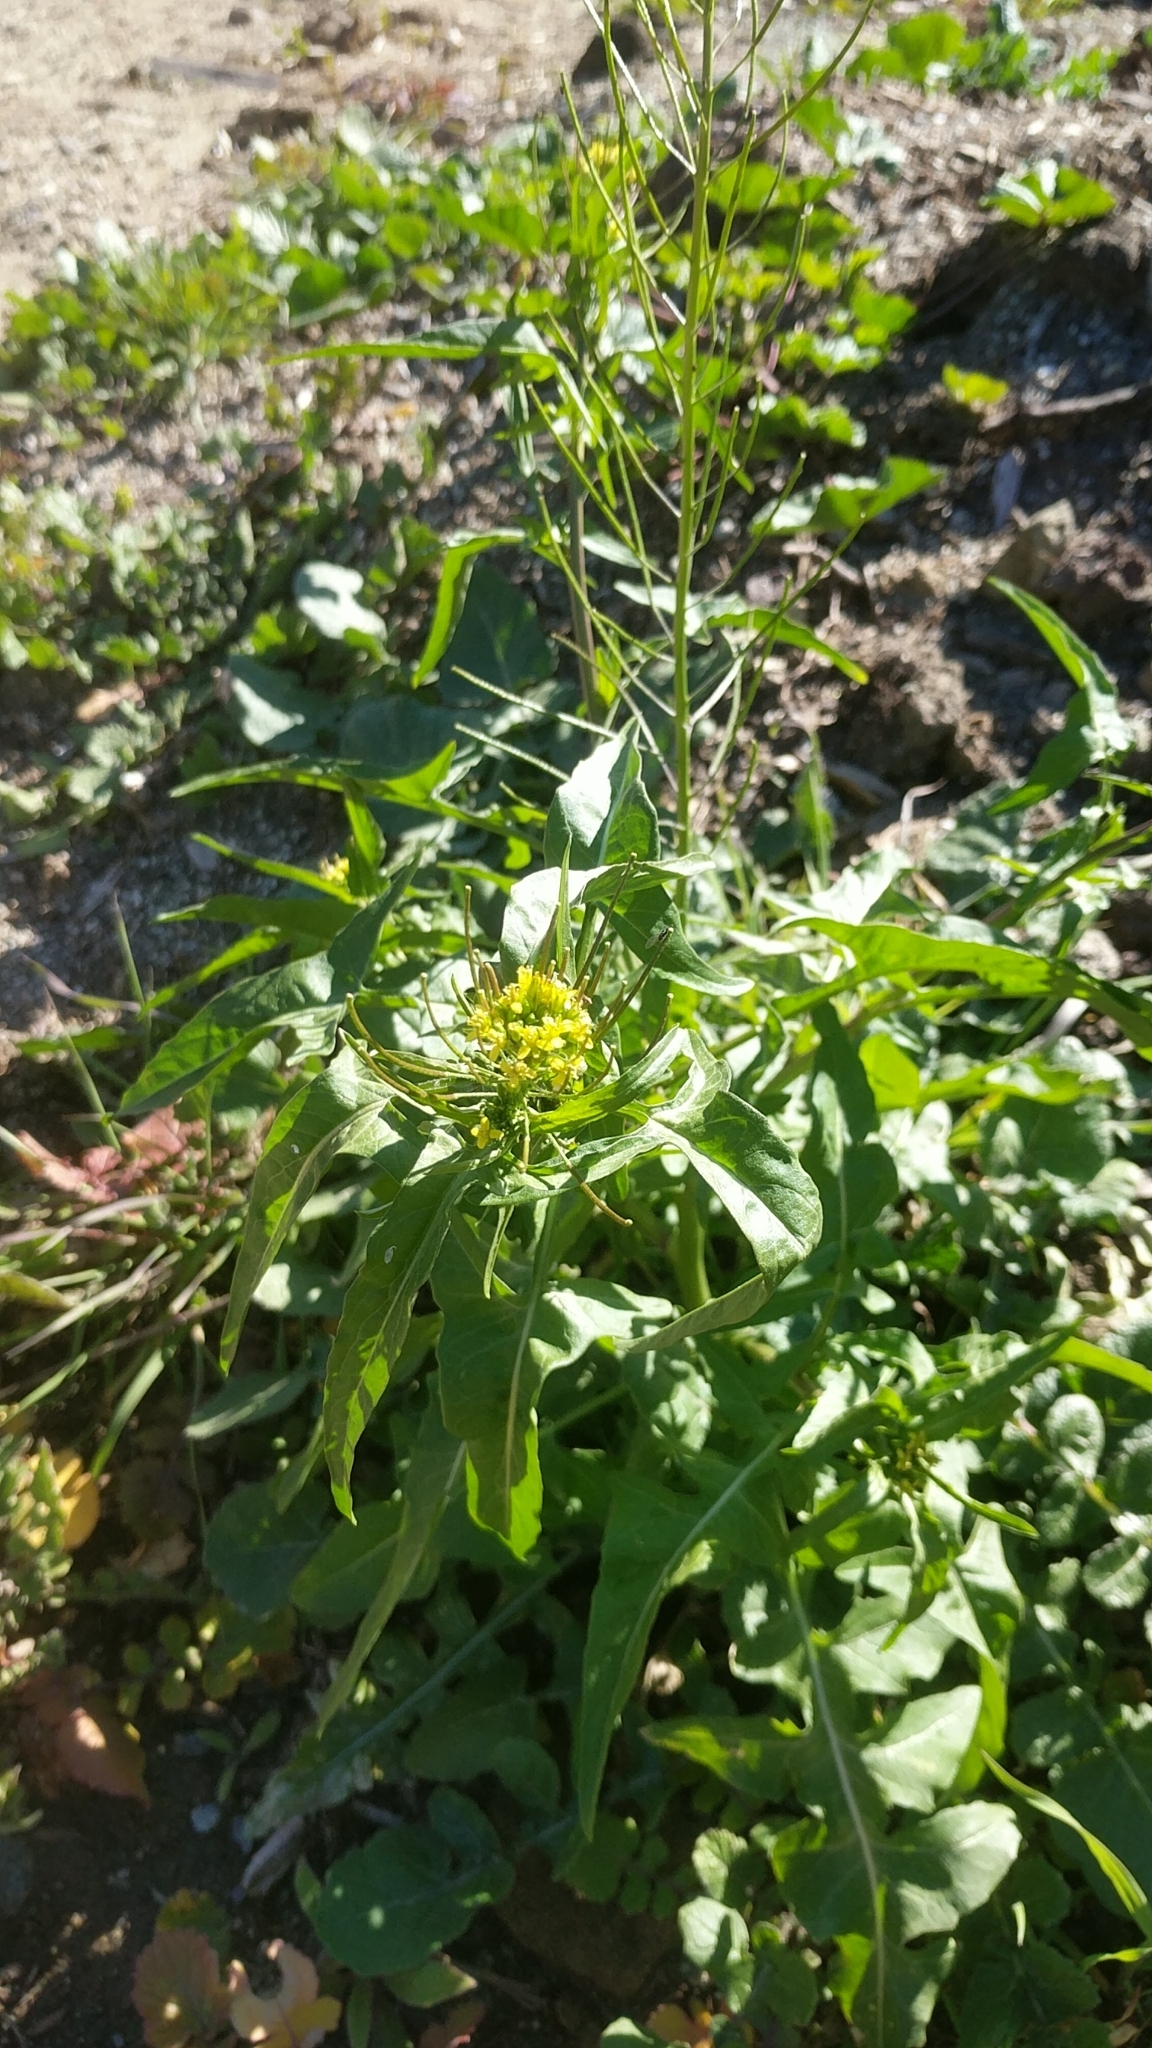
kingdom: Plantae
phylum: Tracheophyta
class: Magnoliopsida
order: Brassicales
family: Brassicaceae
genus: Sisymbrium
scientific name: Sisymbrium irio
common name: London rocket
